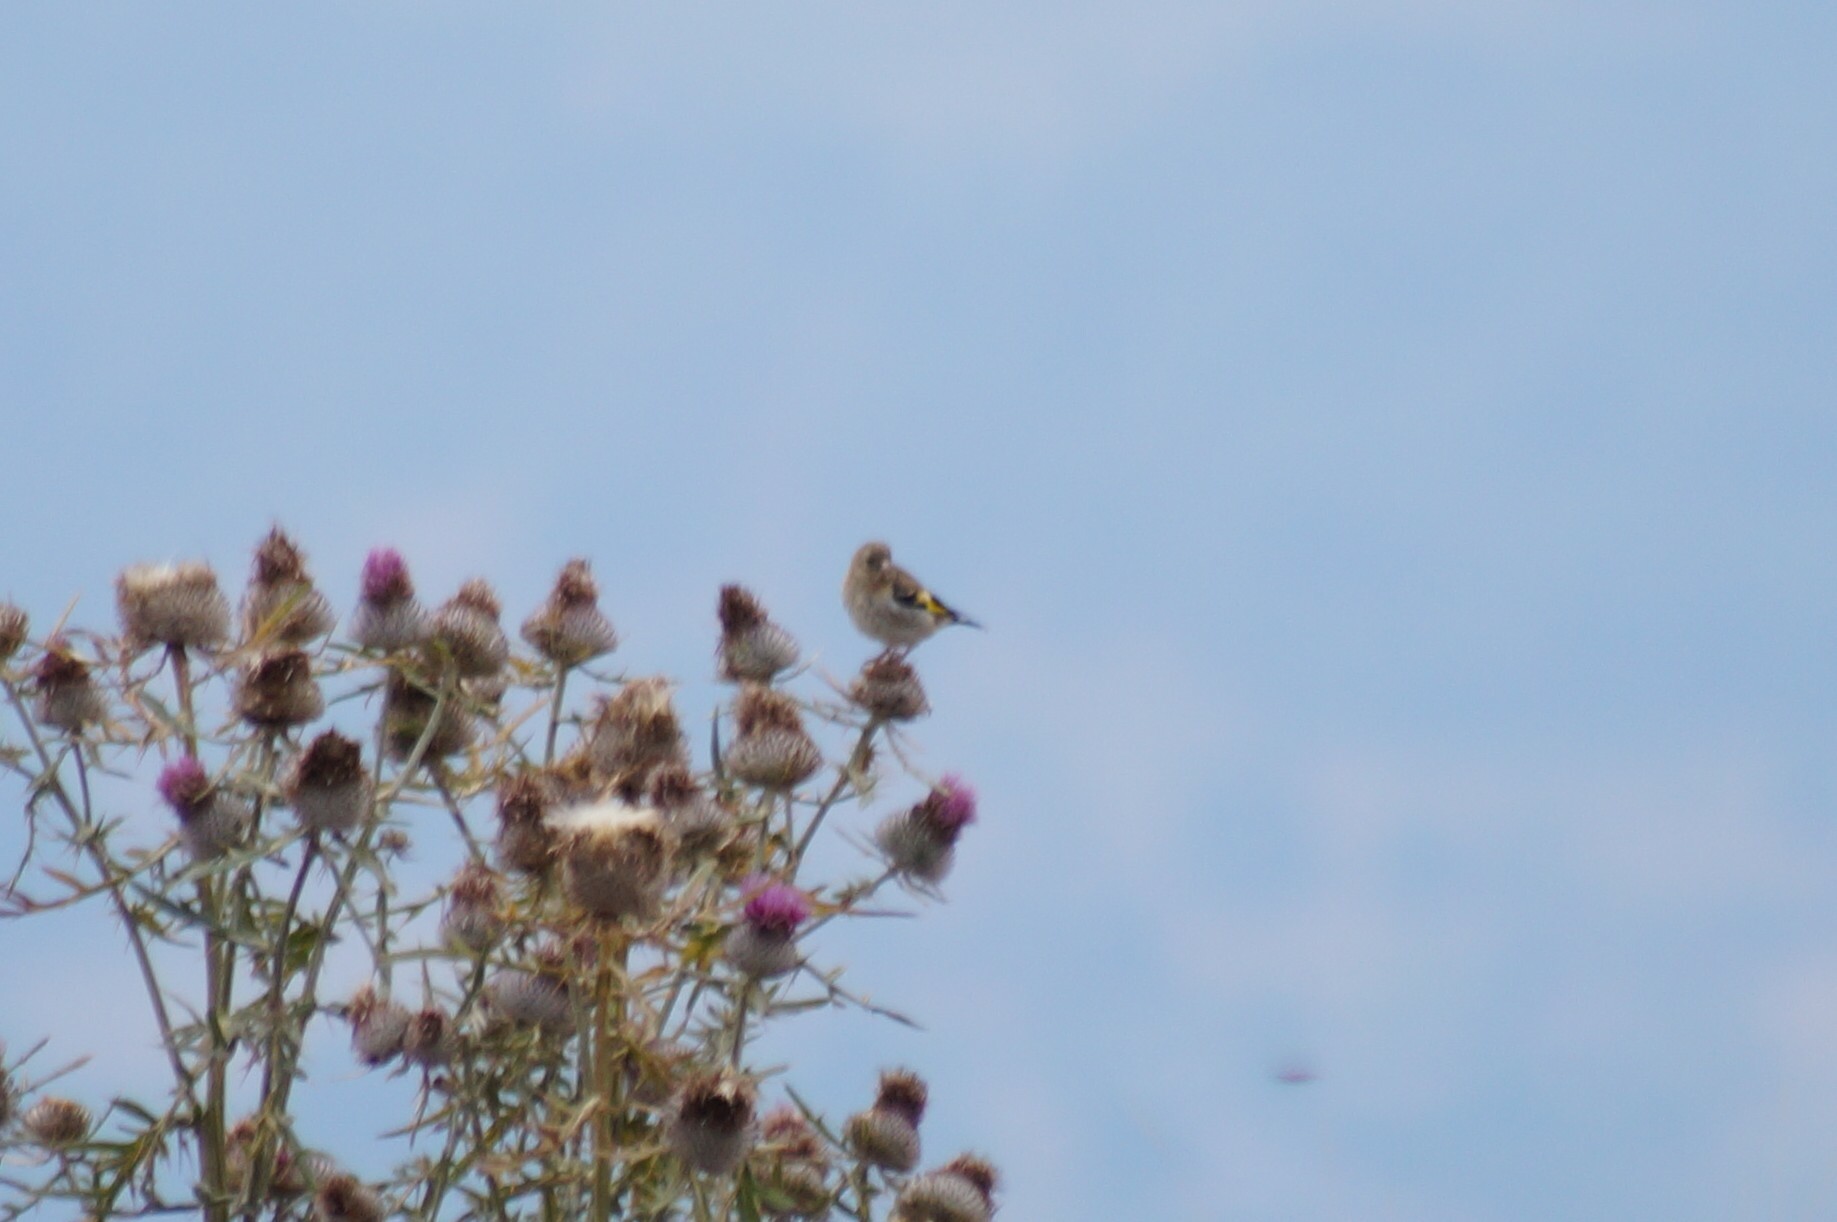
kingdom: Animalia
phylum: Chordata
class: Aves
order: Passeriformes
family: Fringillidae
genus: Carduelis
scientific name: Carduelis carduelis
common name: European goldfinch
